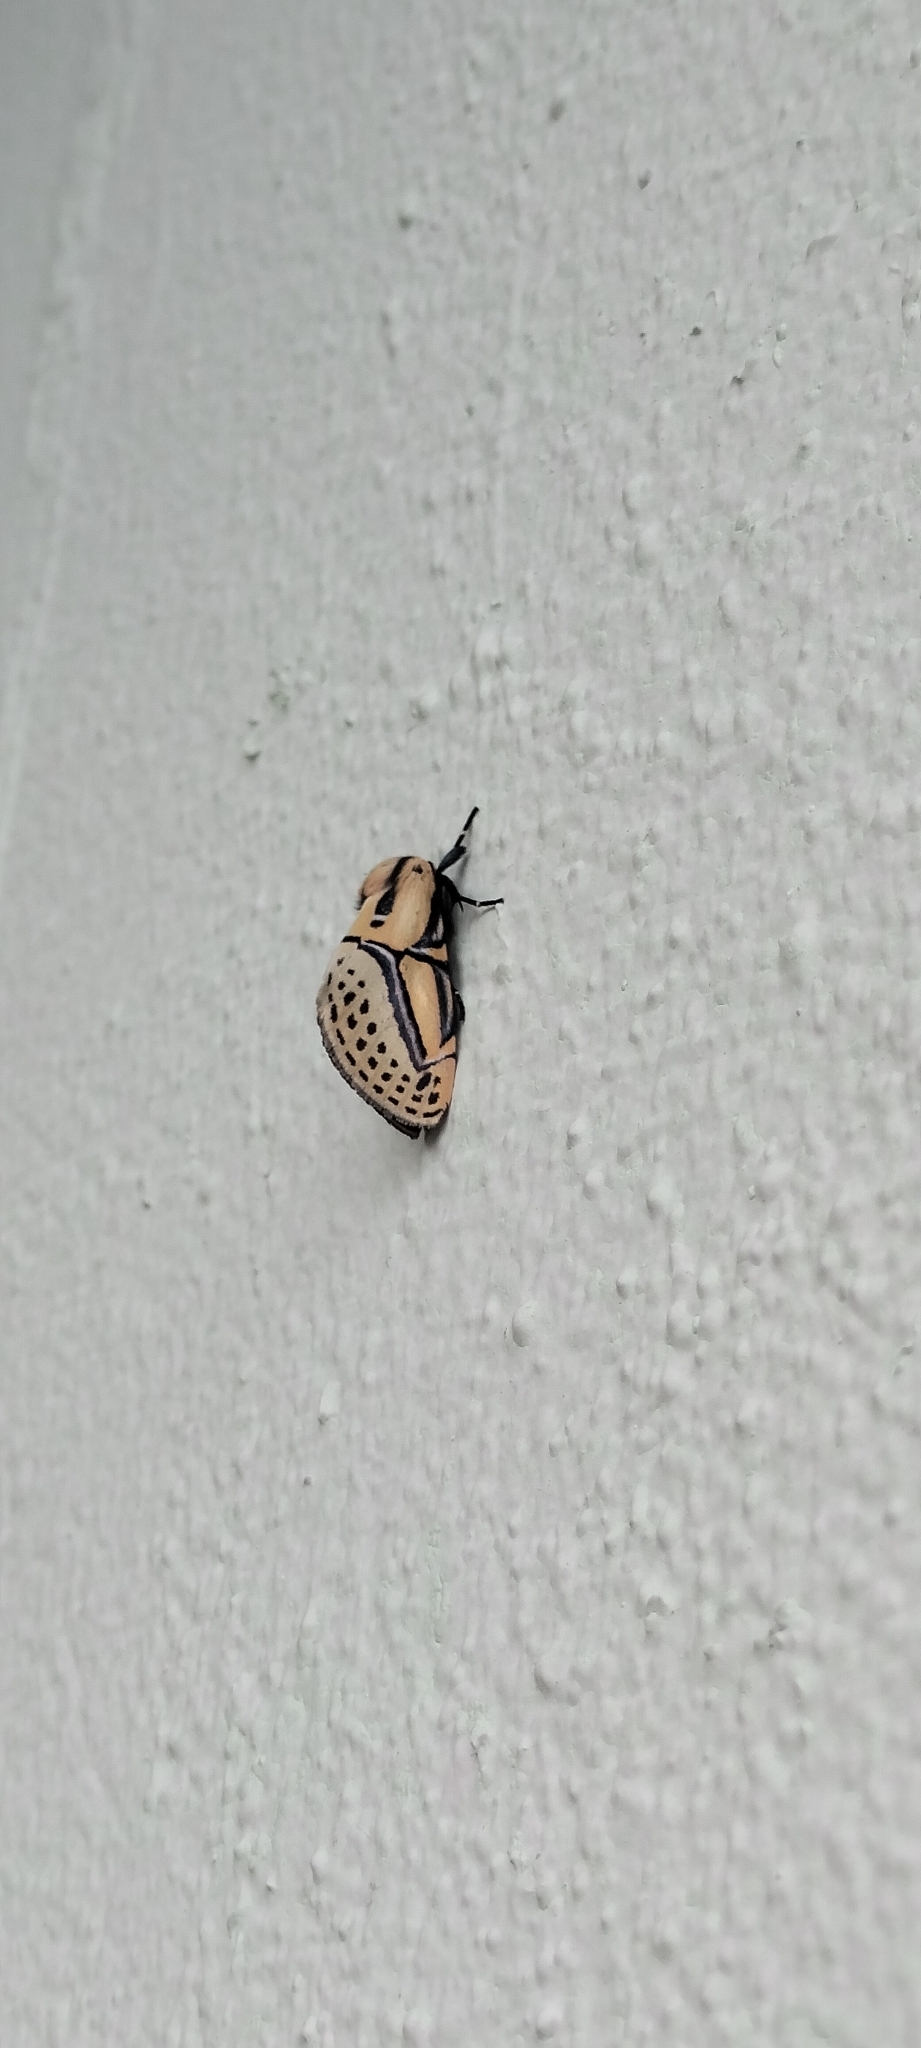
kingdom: Animalia
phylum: Arthropoda
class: Insecta
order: Lepidoptera
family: Erebidae
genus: Diphthera
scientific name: Diphthera festiva
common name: Hieroglyphic moth
